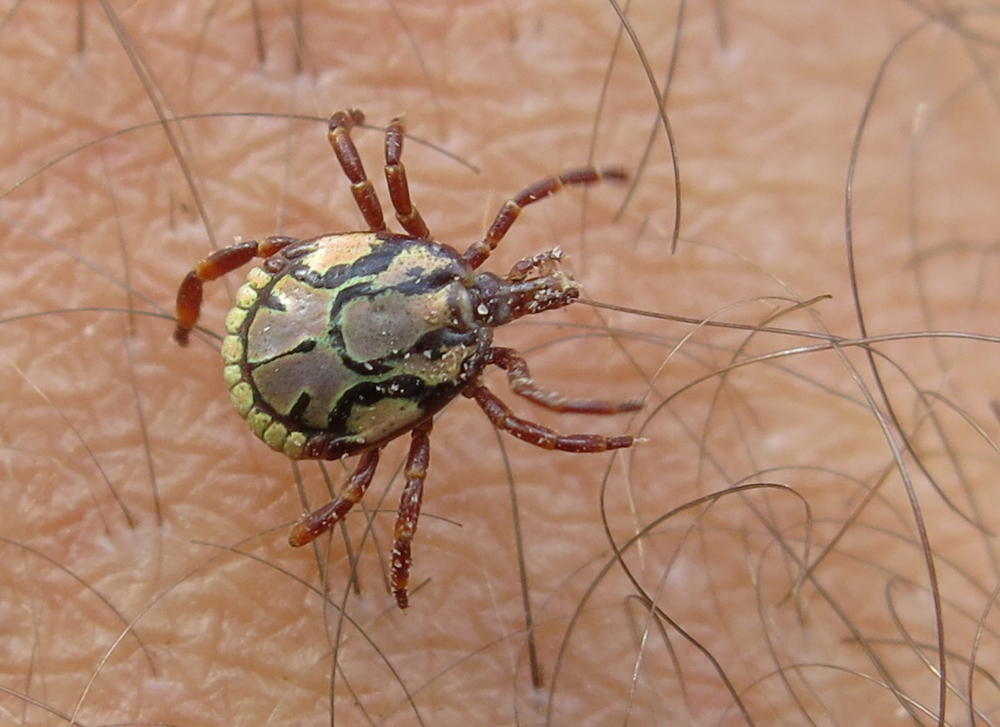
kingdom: Animalia
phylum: Arthropoda
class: Arachnida
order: Ixodida
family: Ixodidae
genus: Amblyomma
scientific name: Amblyomma hebraeum
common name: Bont tick
